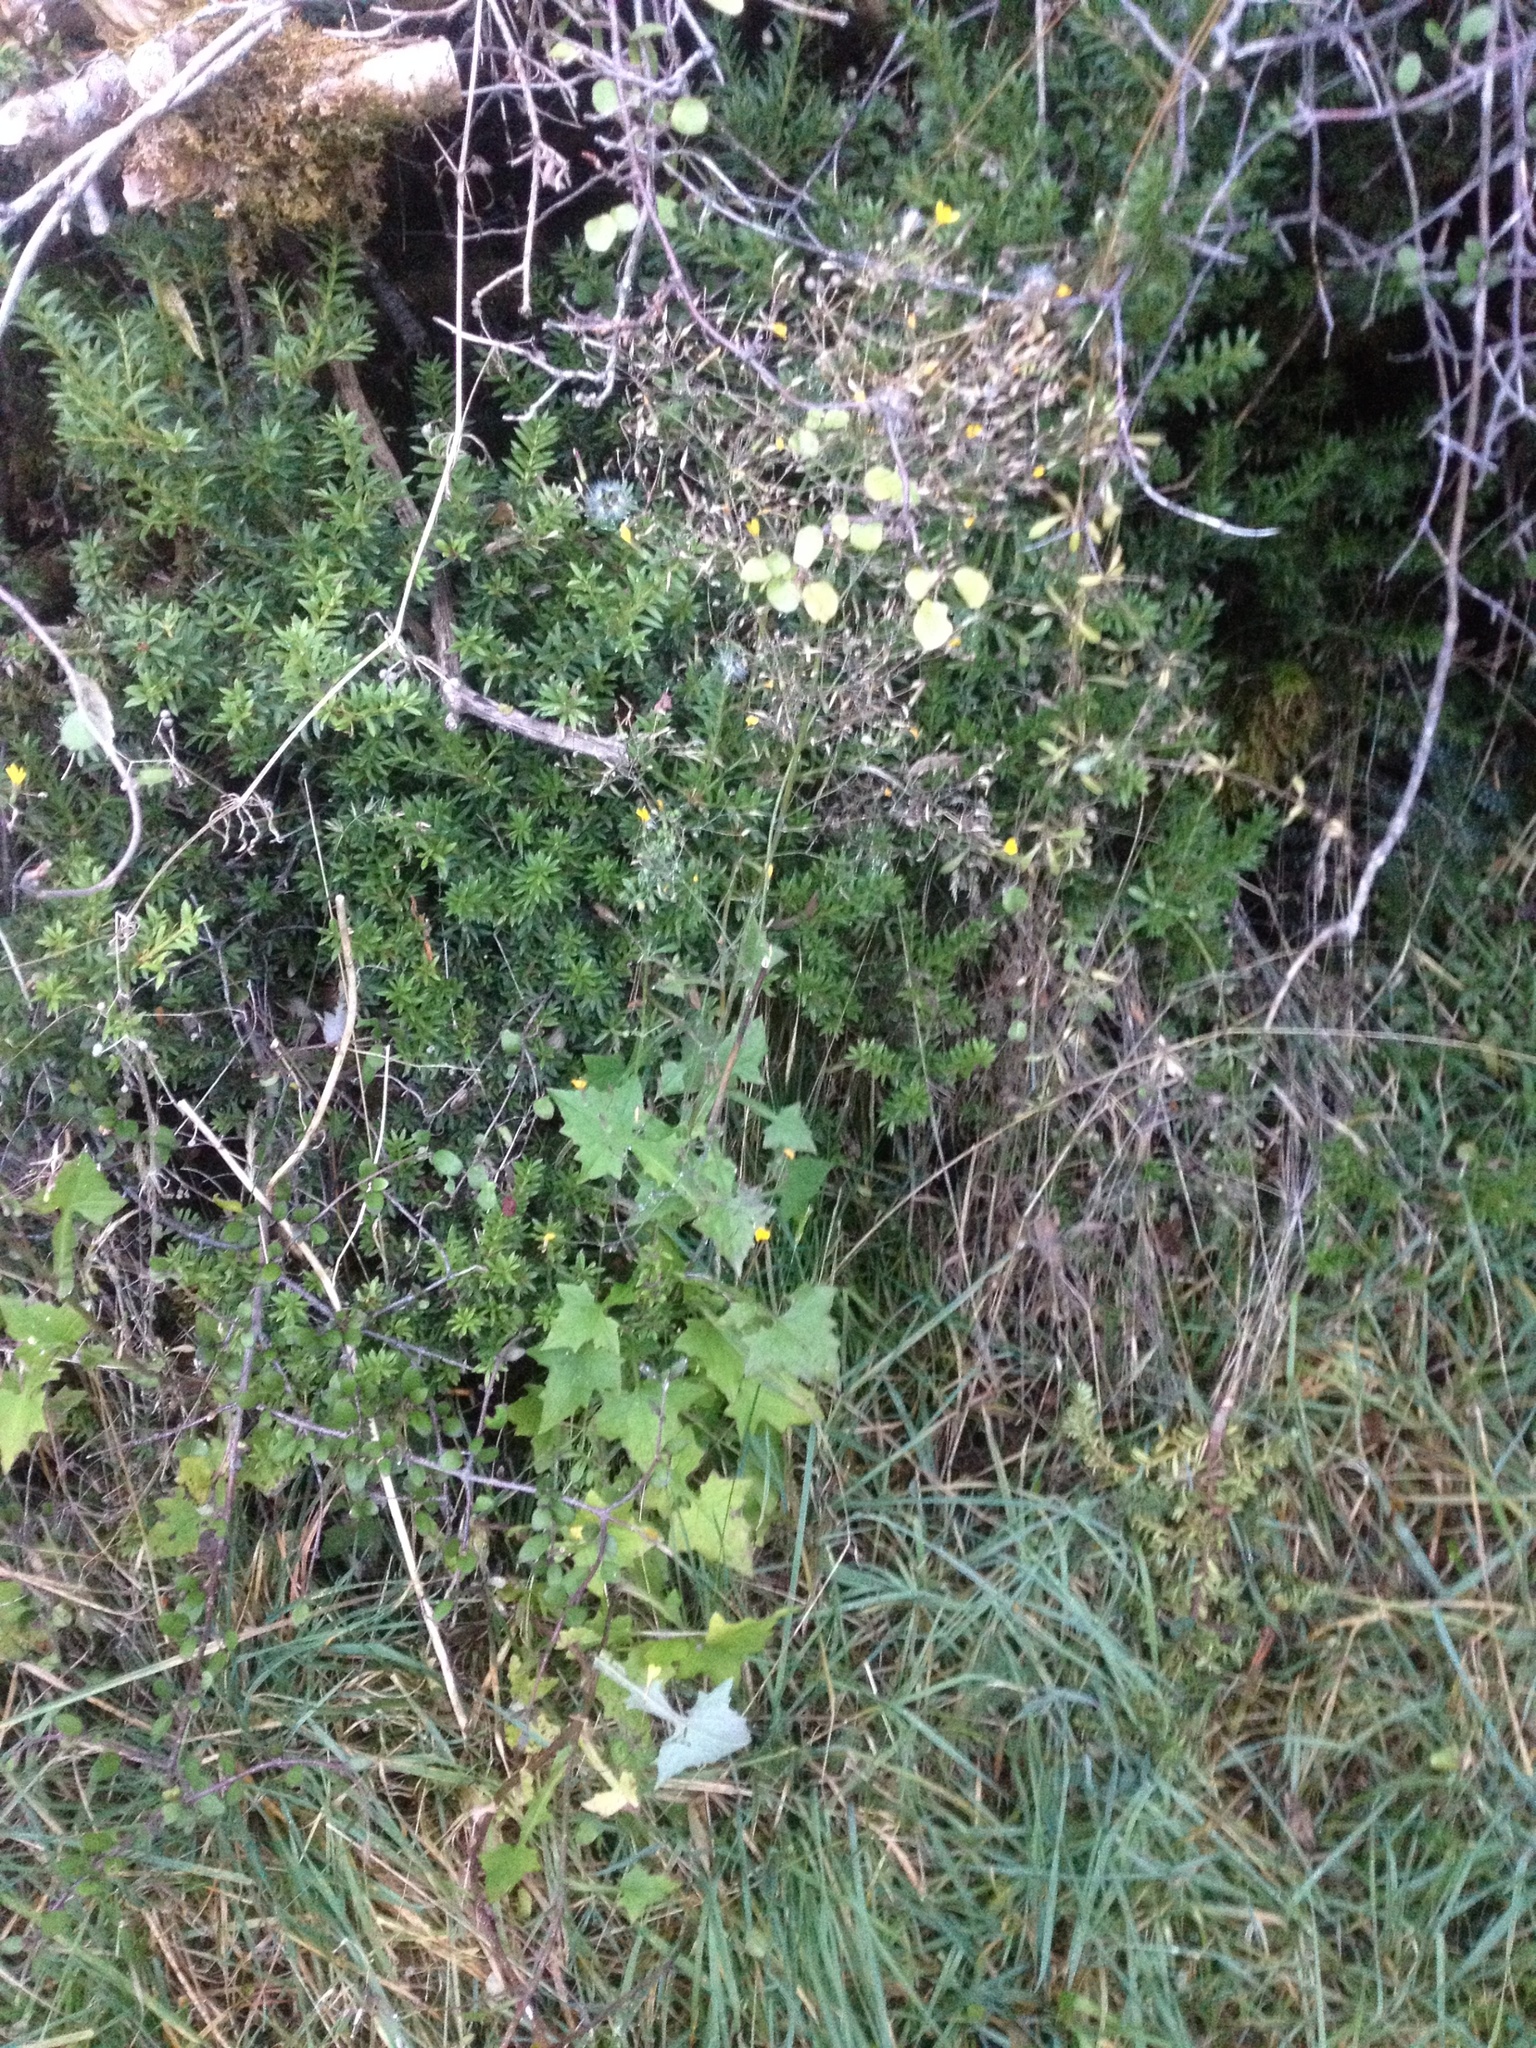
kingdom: Plantae
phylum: Tracheophyta
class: Magnoliopsida
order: Asterales
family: Asteraceae
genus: Mycelis
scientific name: Mycelis muralis
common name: Wall lettuce
